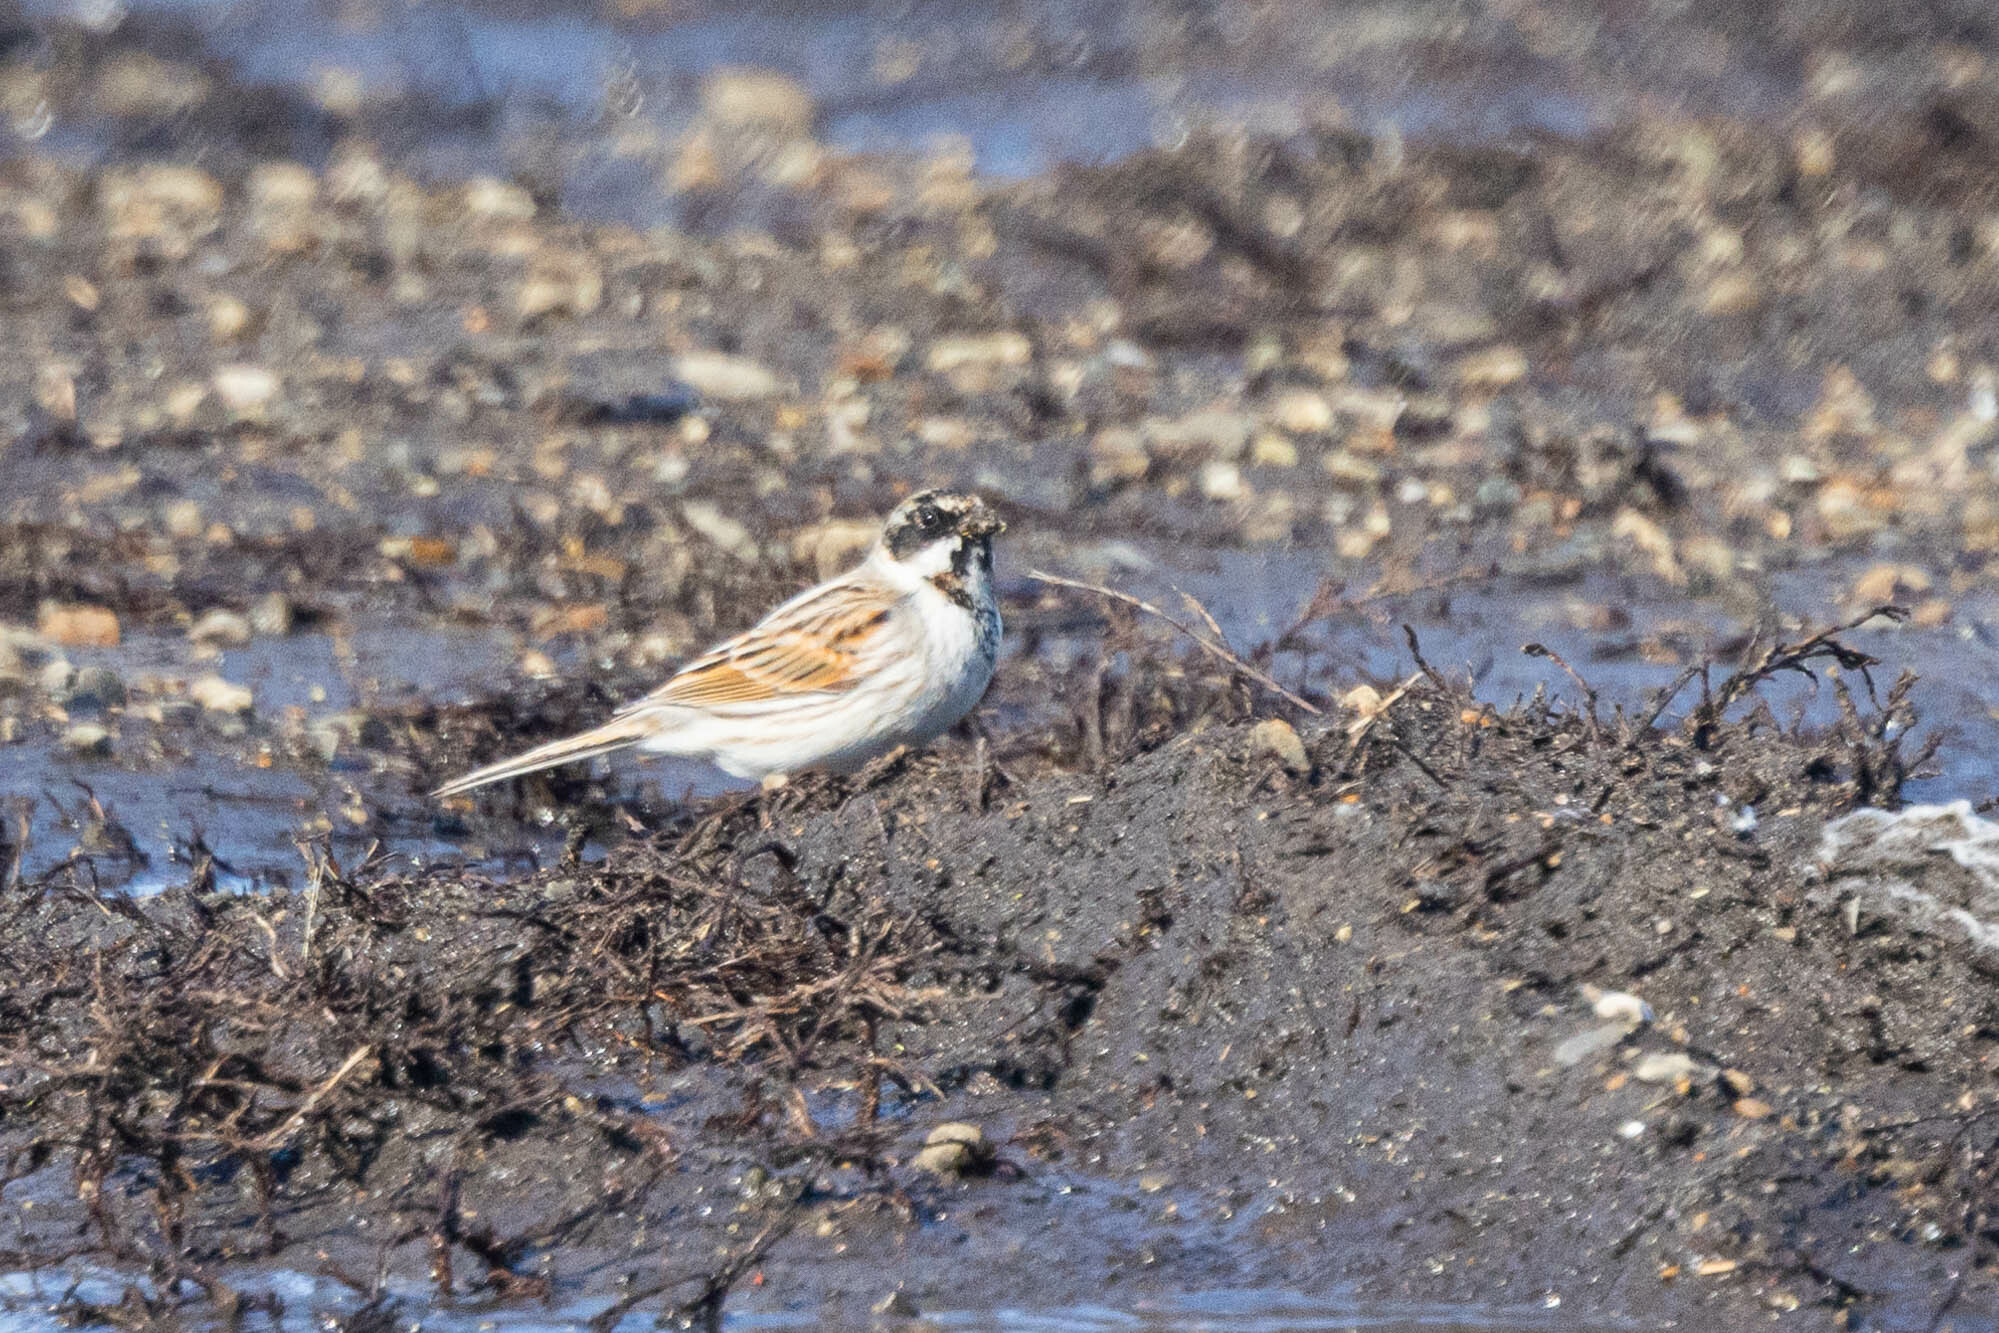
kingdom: Animalia
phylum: Chordata
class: Aves
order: Passeriformes
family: Emberizidae
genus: Emberiza
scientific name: Emberiza schoeniclus
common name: Reed bunting
